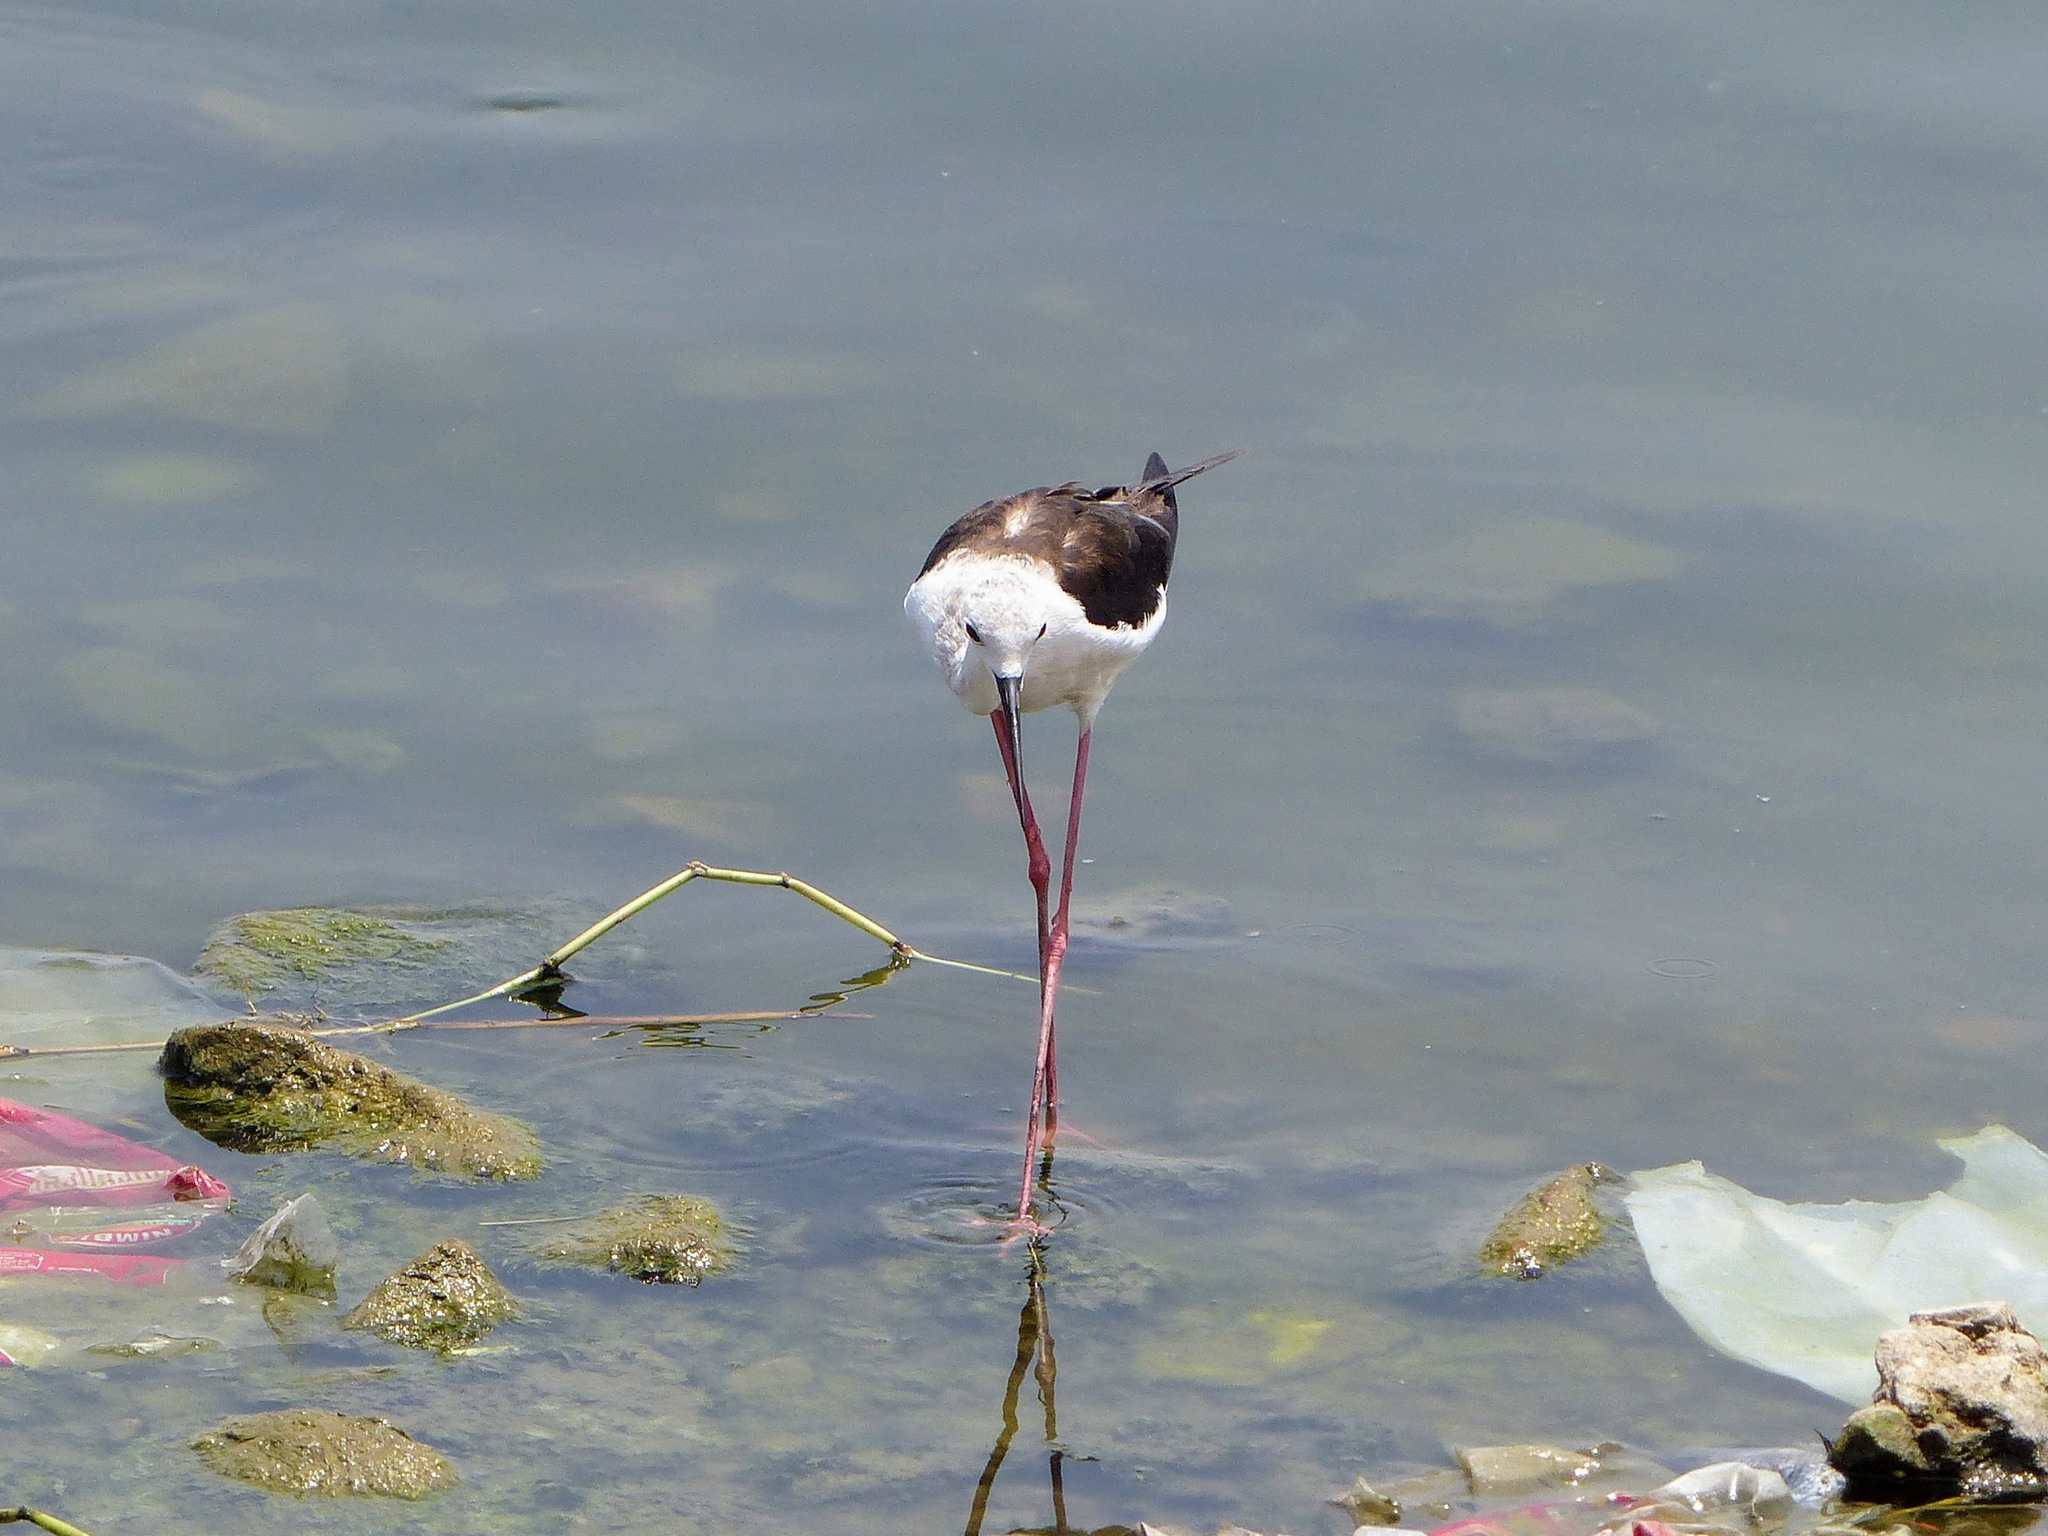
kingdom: Animalia
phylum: Chordata
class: Aves
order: Charadriiformes
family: Recurvirostridae
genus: Himantopus
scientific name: Himantopus himantopus
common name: Black-winged stilt
